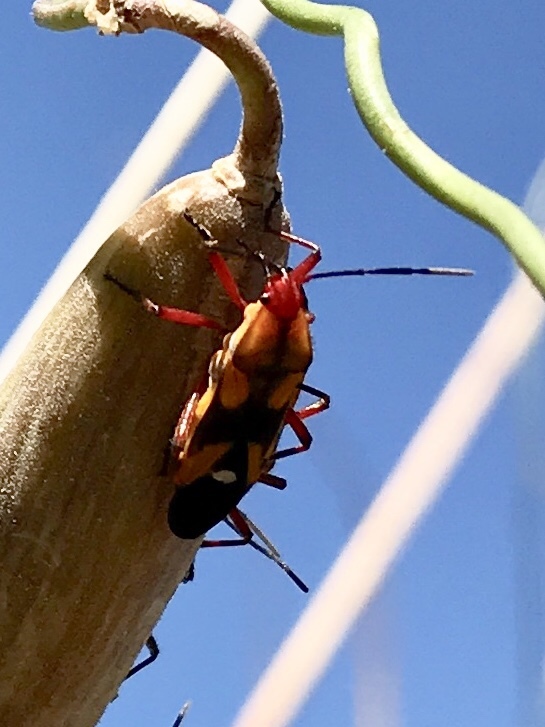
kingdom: Animalia
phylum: Arthropoda
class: Insecta
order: Hemiptera
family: Lygaeidae
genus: Oncopeltus
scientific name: Oncopeltus guttaloides
